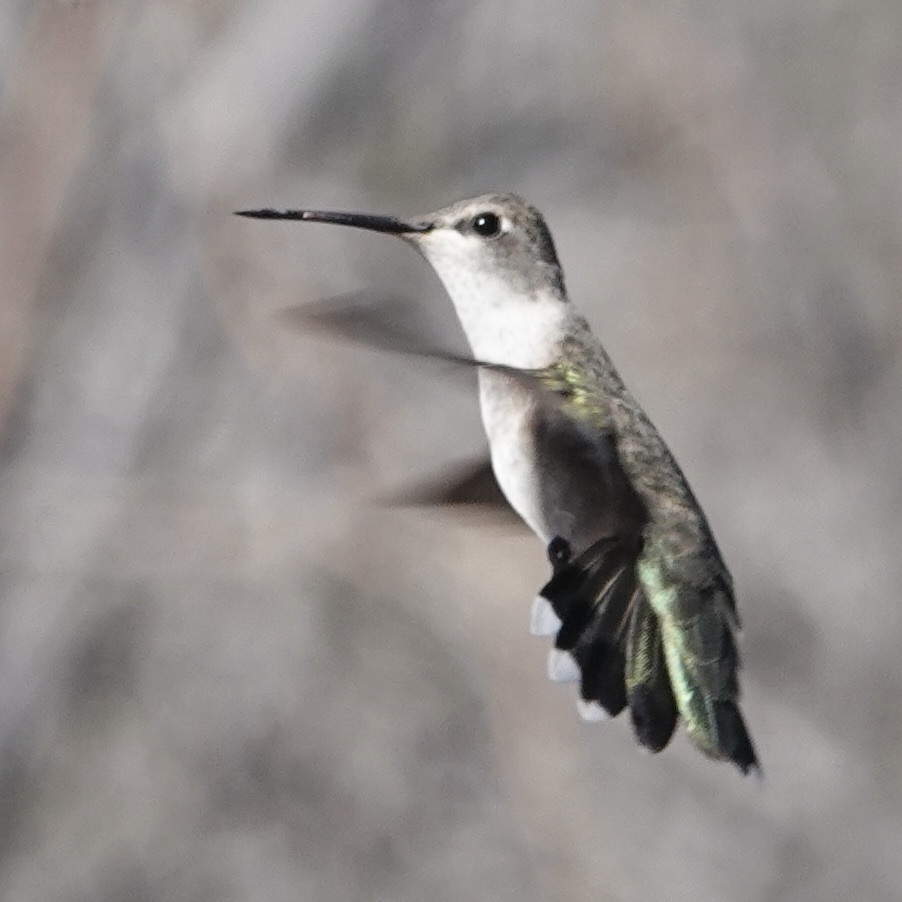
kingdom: Animalia
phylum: Chordata
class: Aves
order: Apodiformes
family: Trochilidae
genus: Archilochus
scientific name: Archilochus alexandri
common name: Black-chinned hummingbird
